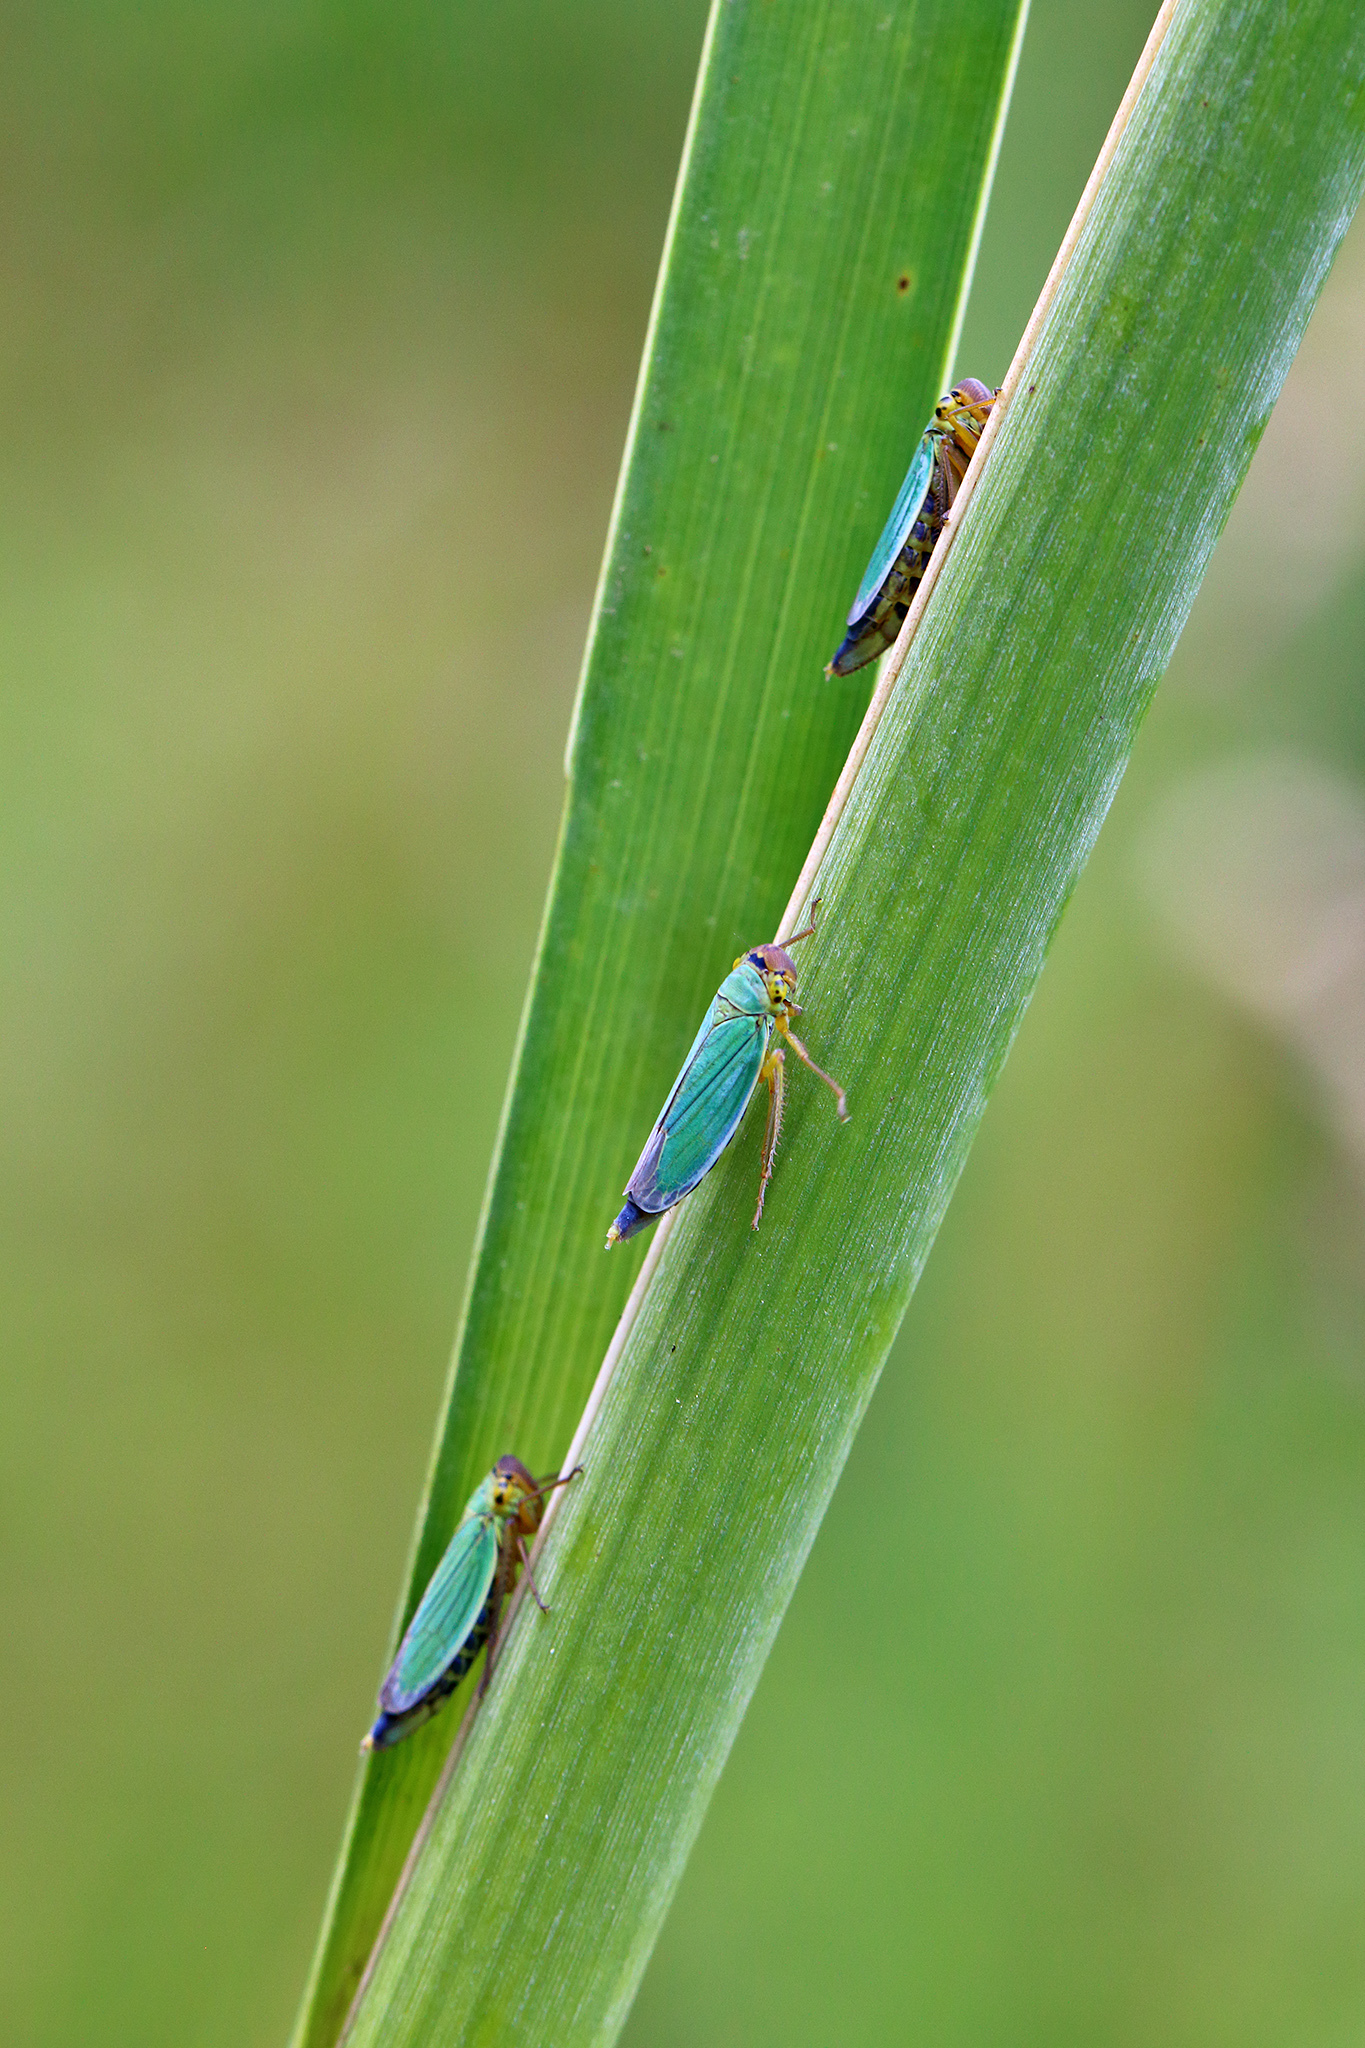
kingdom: Animalia
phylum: Arthropoda
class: Insecta
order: Hemiptera
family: Cicadellidae
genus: Cicadella
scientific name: Cicadella viridis
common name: Leafhopper
